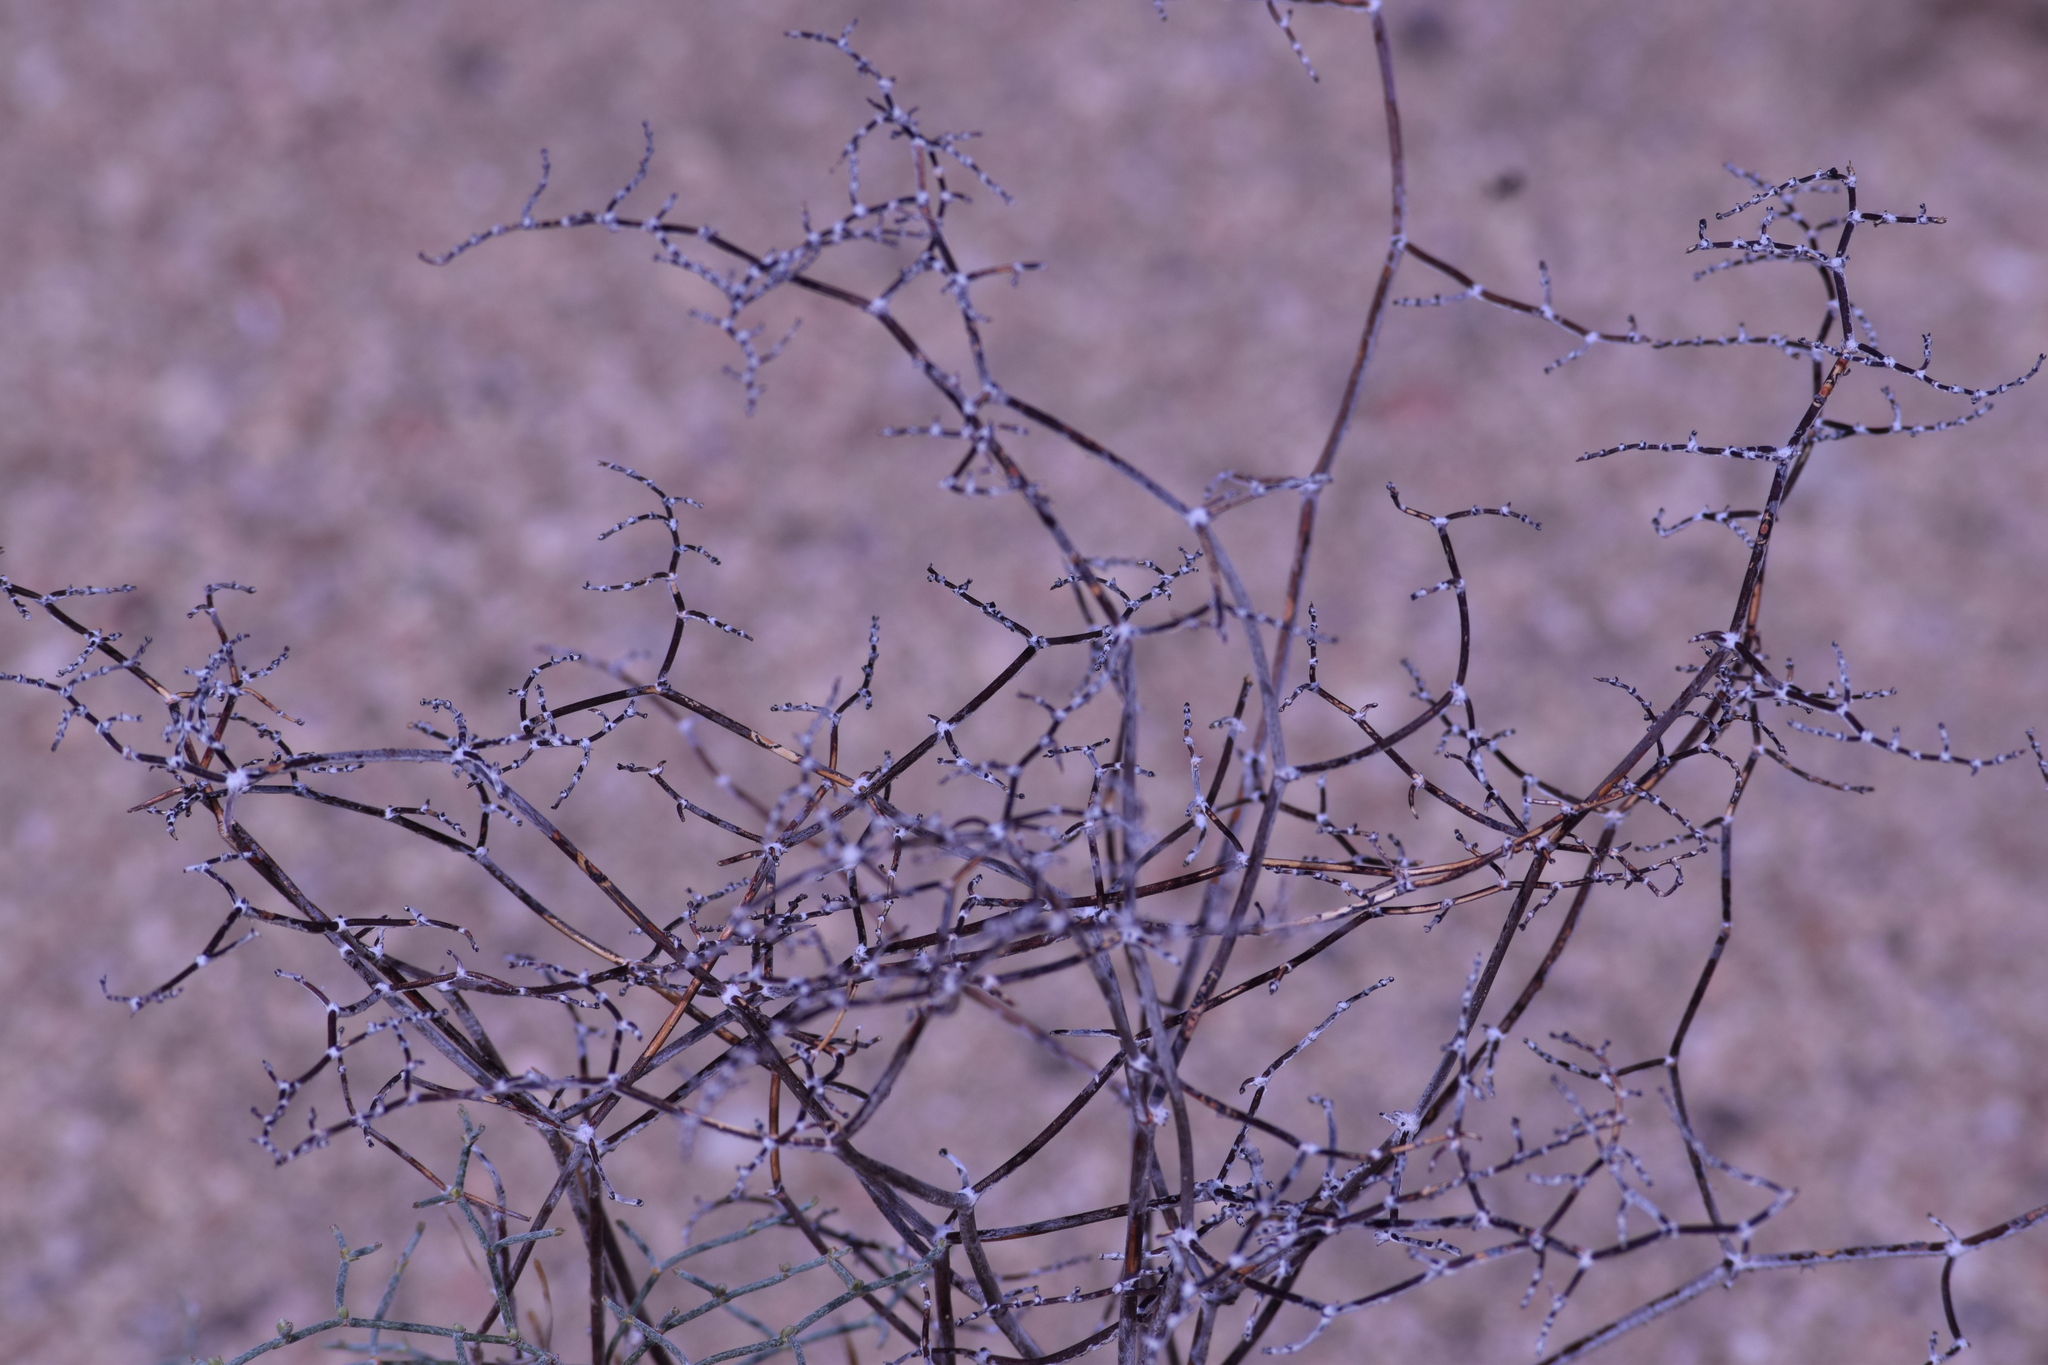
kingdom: Plantae
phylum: Tracheophyta
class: Magnoliopsida
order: Caryophyllales
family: Polygonaceae
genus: Eriogonum
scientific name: Eriogonum plumatella
